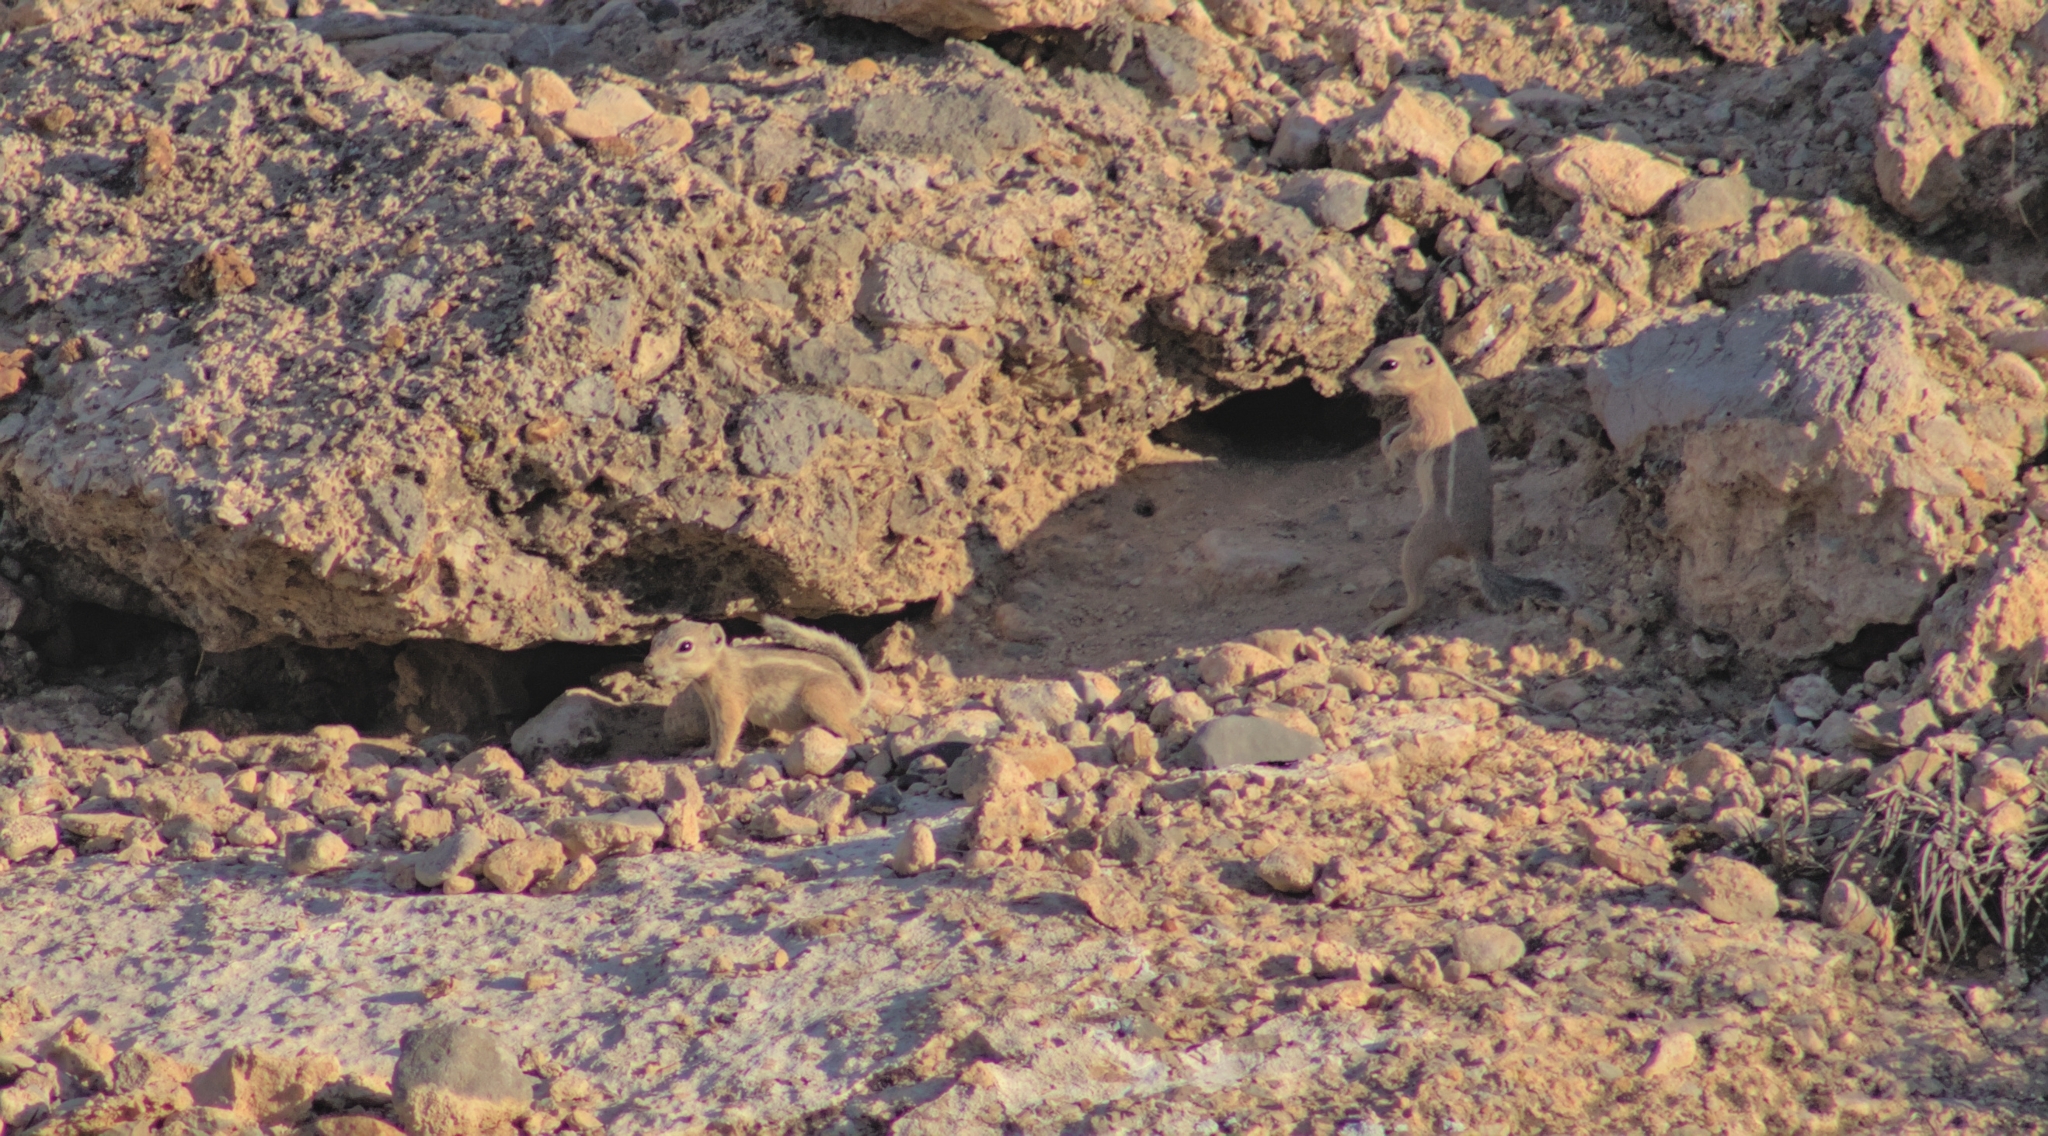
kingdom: Animalia
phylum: Chordata
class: Mammalia
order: Rodentia
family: Sciuridae
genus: Ammospermophilus
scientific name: Ammospermophilus leucurus
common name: White-tailed antelope squirrel
